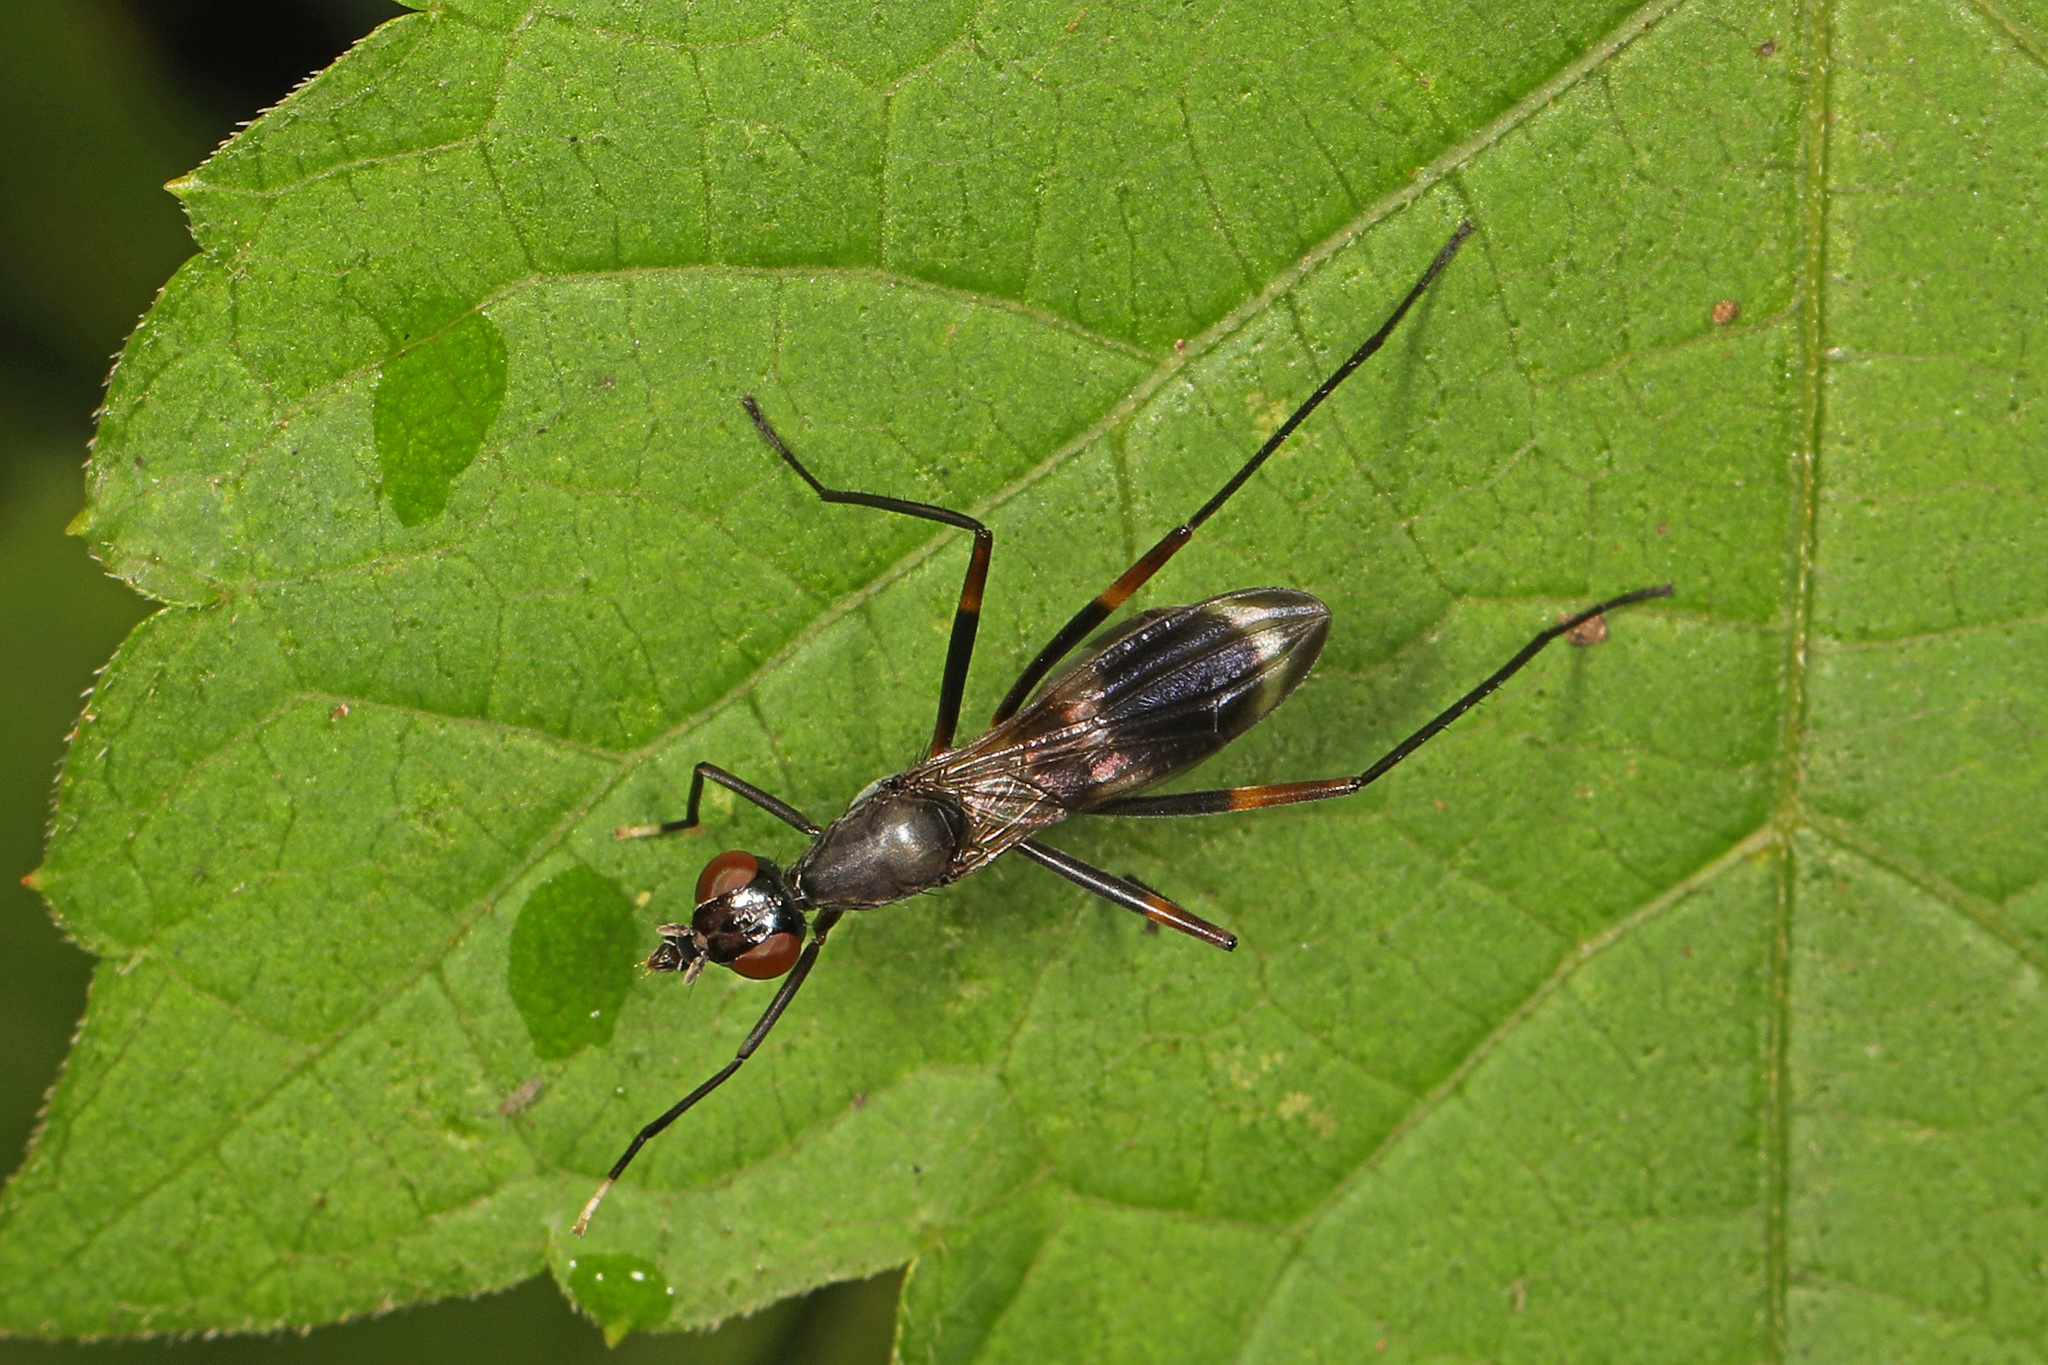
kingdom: Animalia
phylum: Arthropoda
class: Insecta
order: Diptera
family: Micropezidae
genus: Taeniaptera
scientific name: Taeniaptera trivittata
